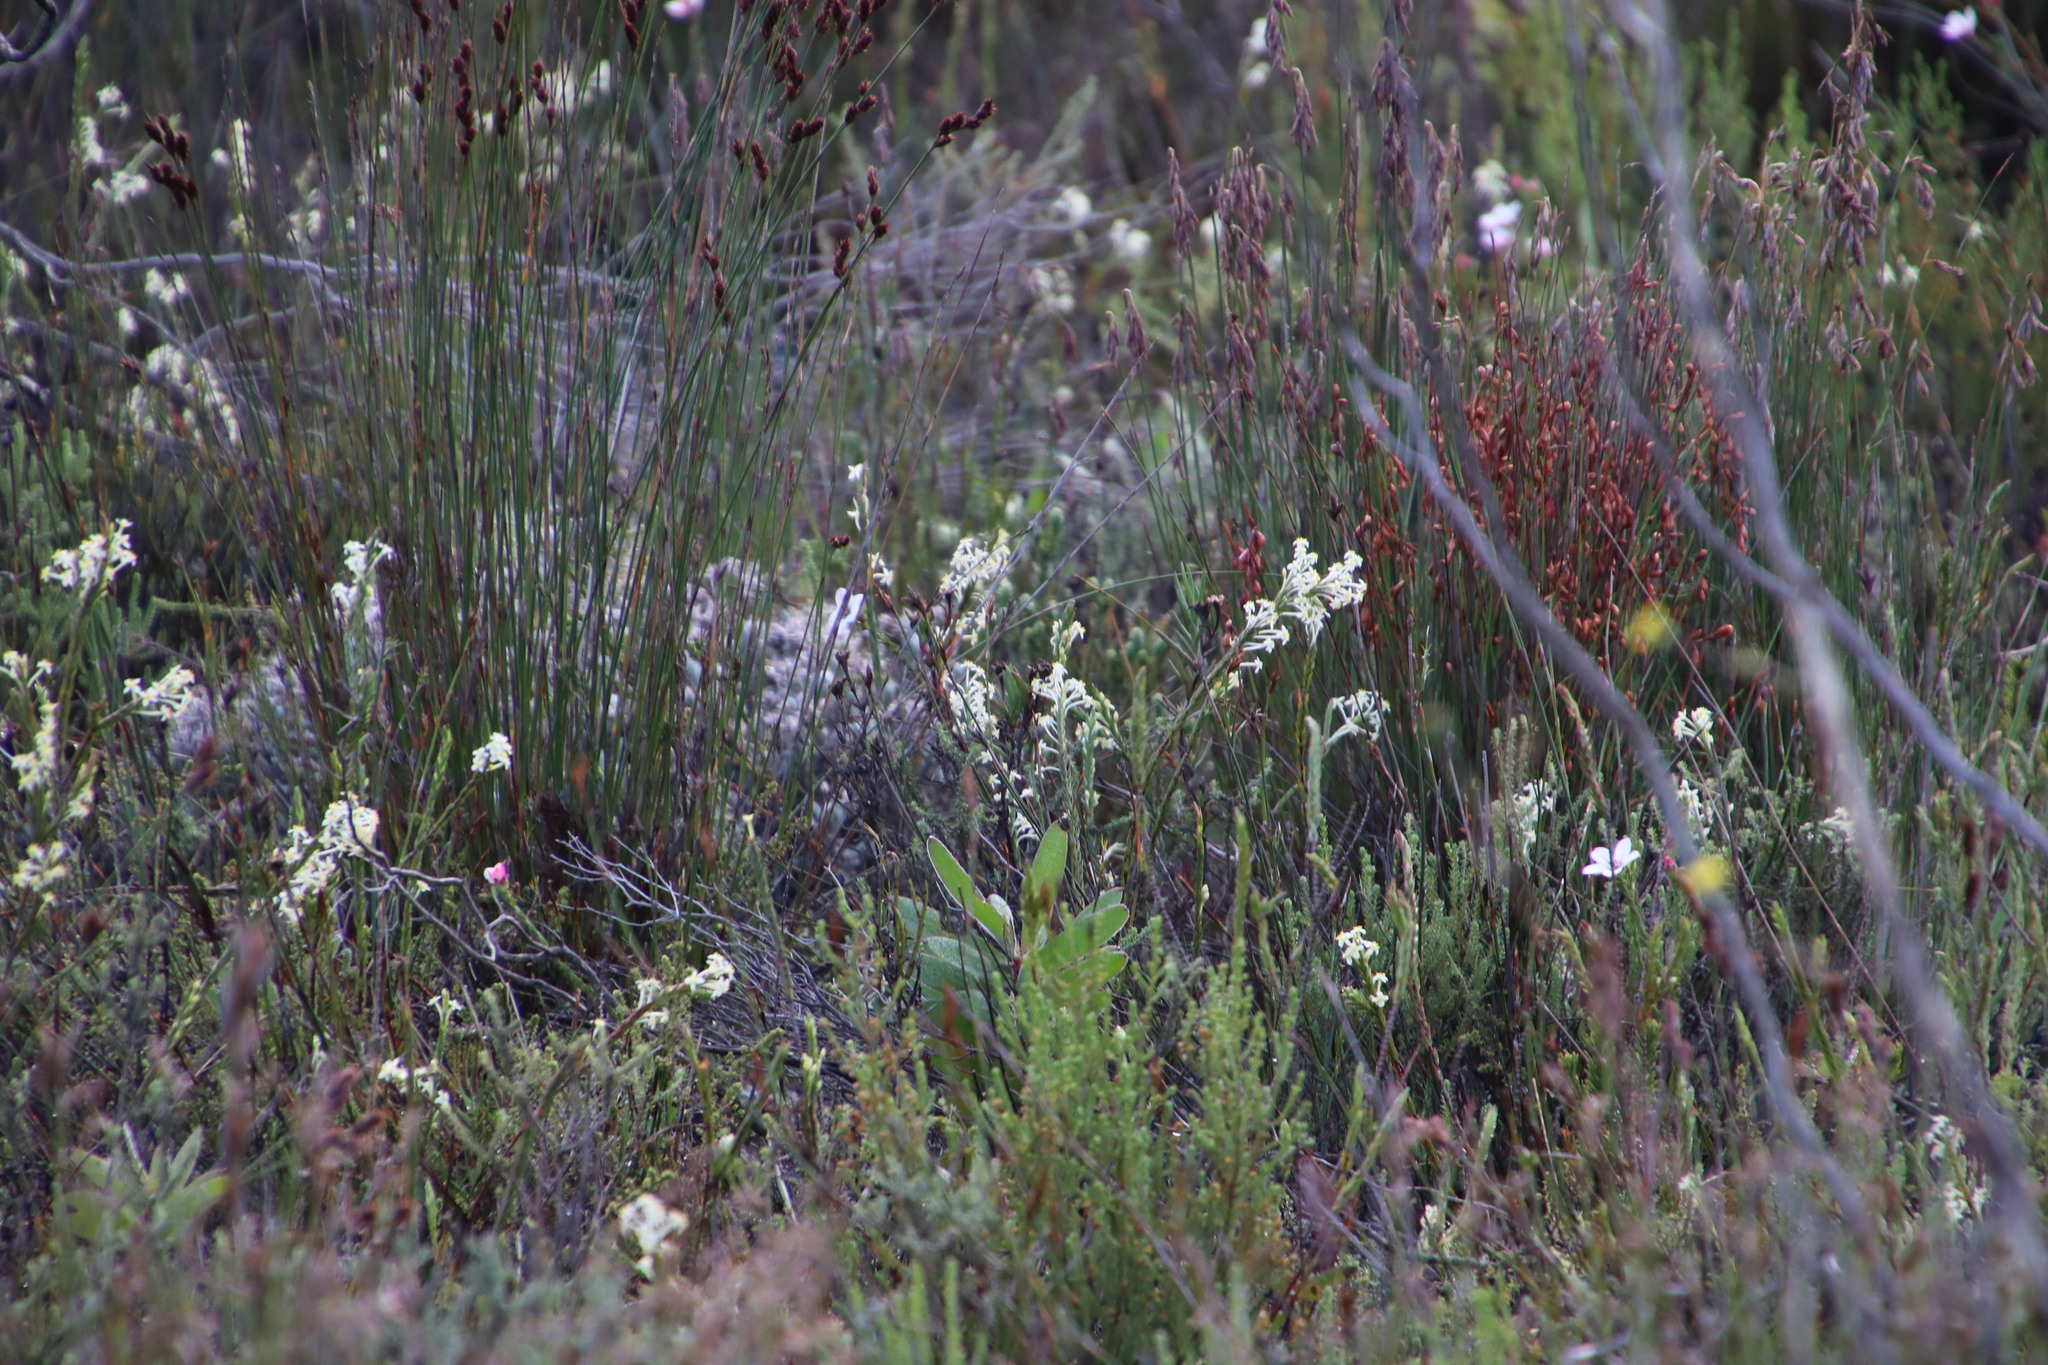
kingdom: Plantae
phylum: Tracheophyta
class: Magnoliopsida
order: Malvales
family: Thymelaeaceae
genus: Struthiola
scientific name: Struthiola ciliata
